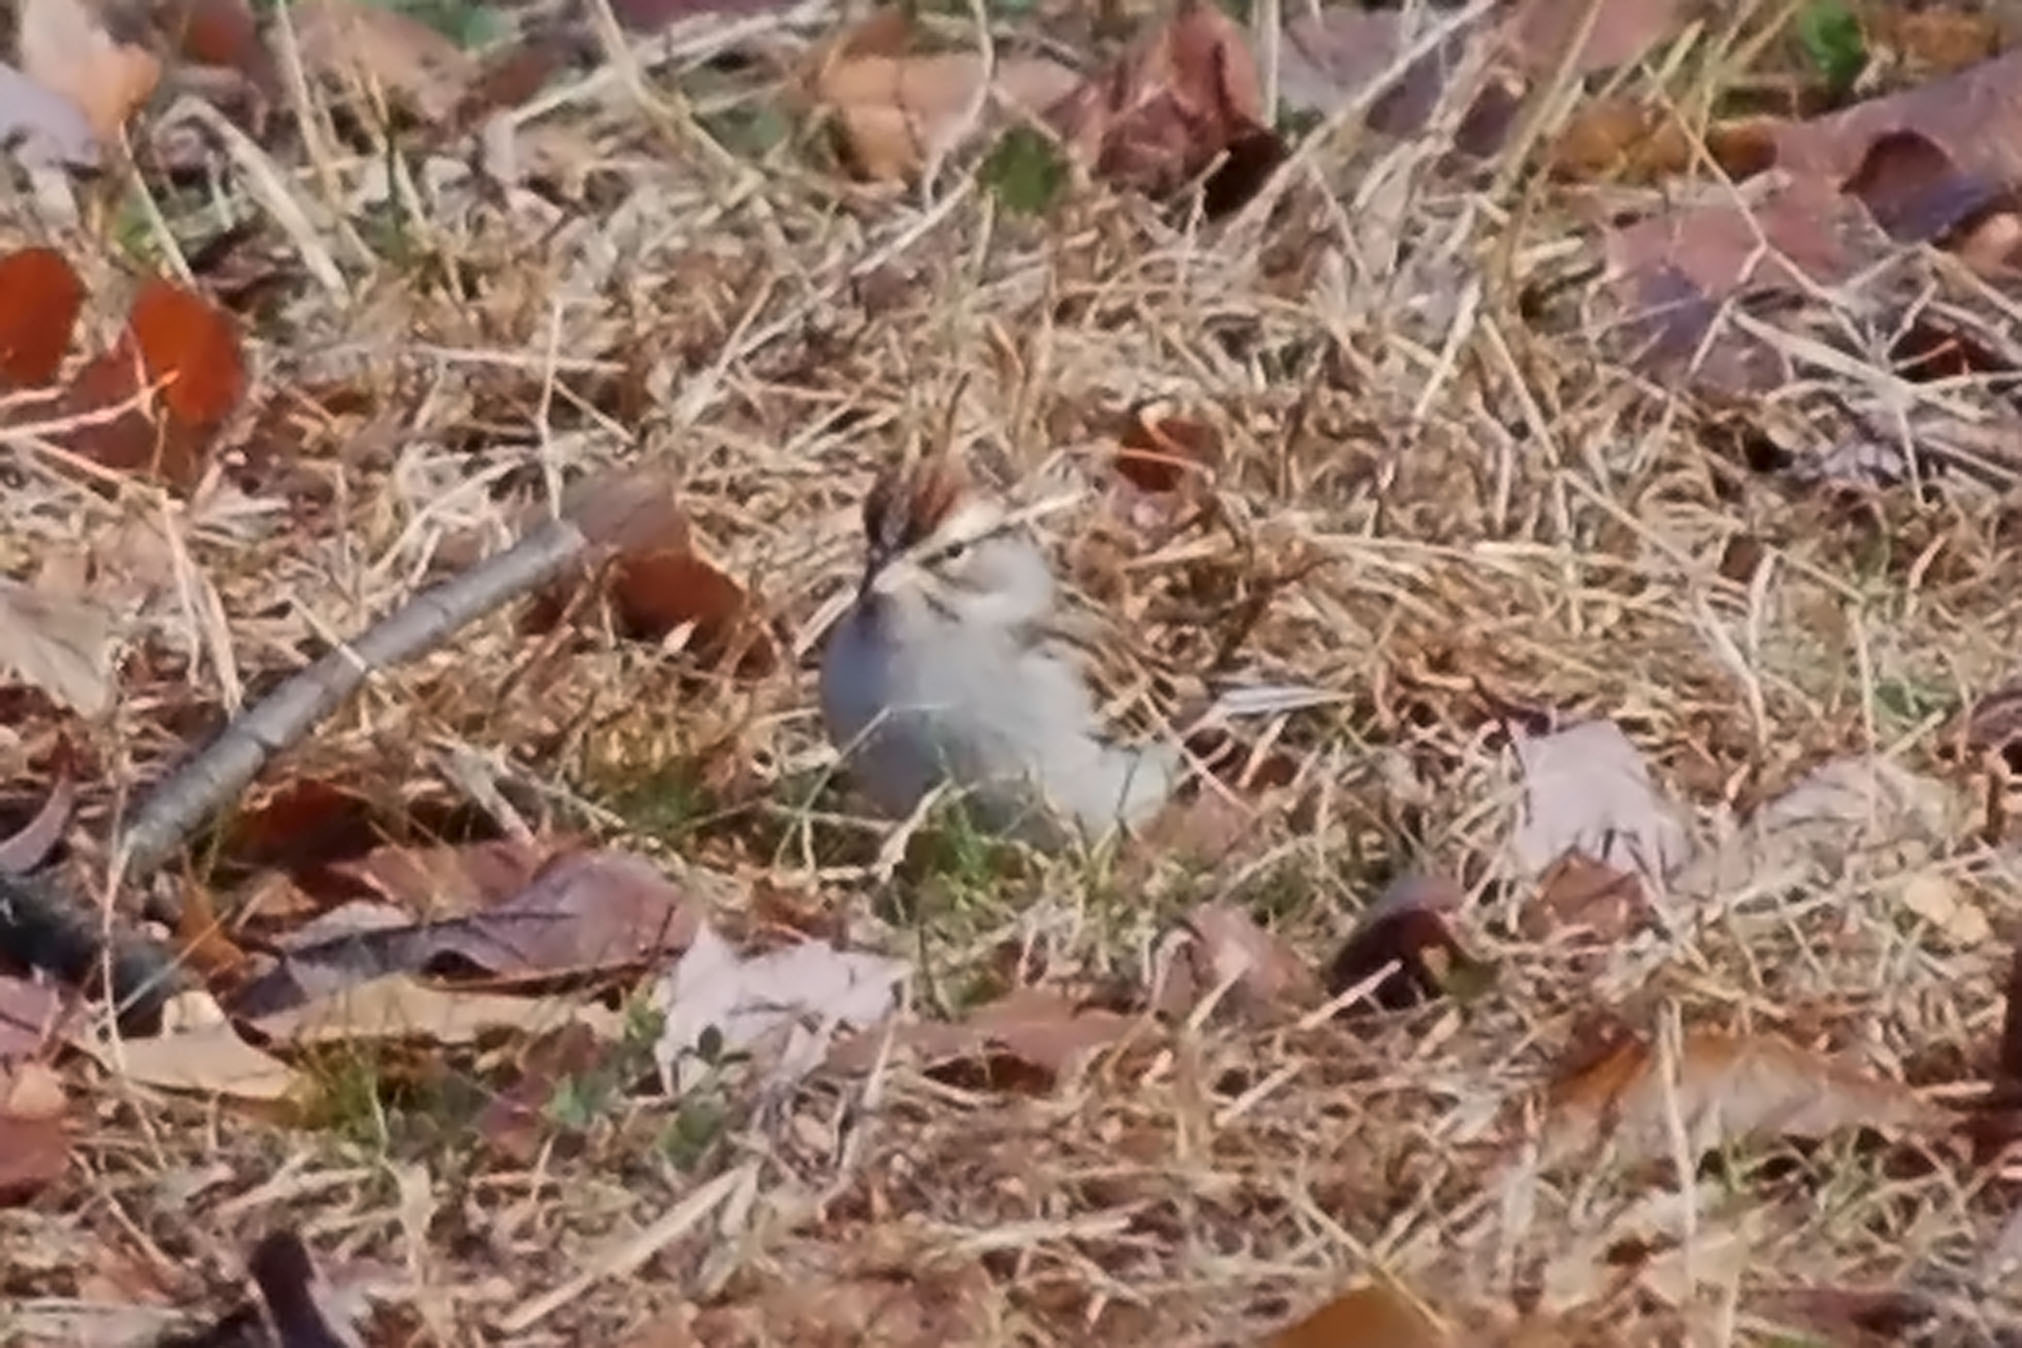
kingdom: Animalia
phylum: Chordata
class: Aves
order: Passeriformes
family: Passerellidae
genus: Spizella
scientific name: Spizella passerina
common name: Chipping sparrow
